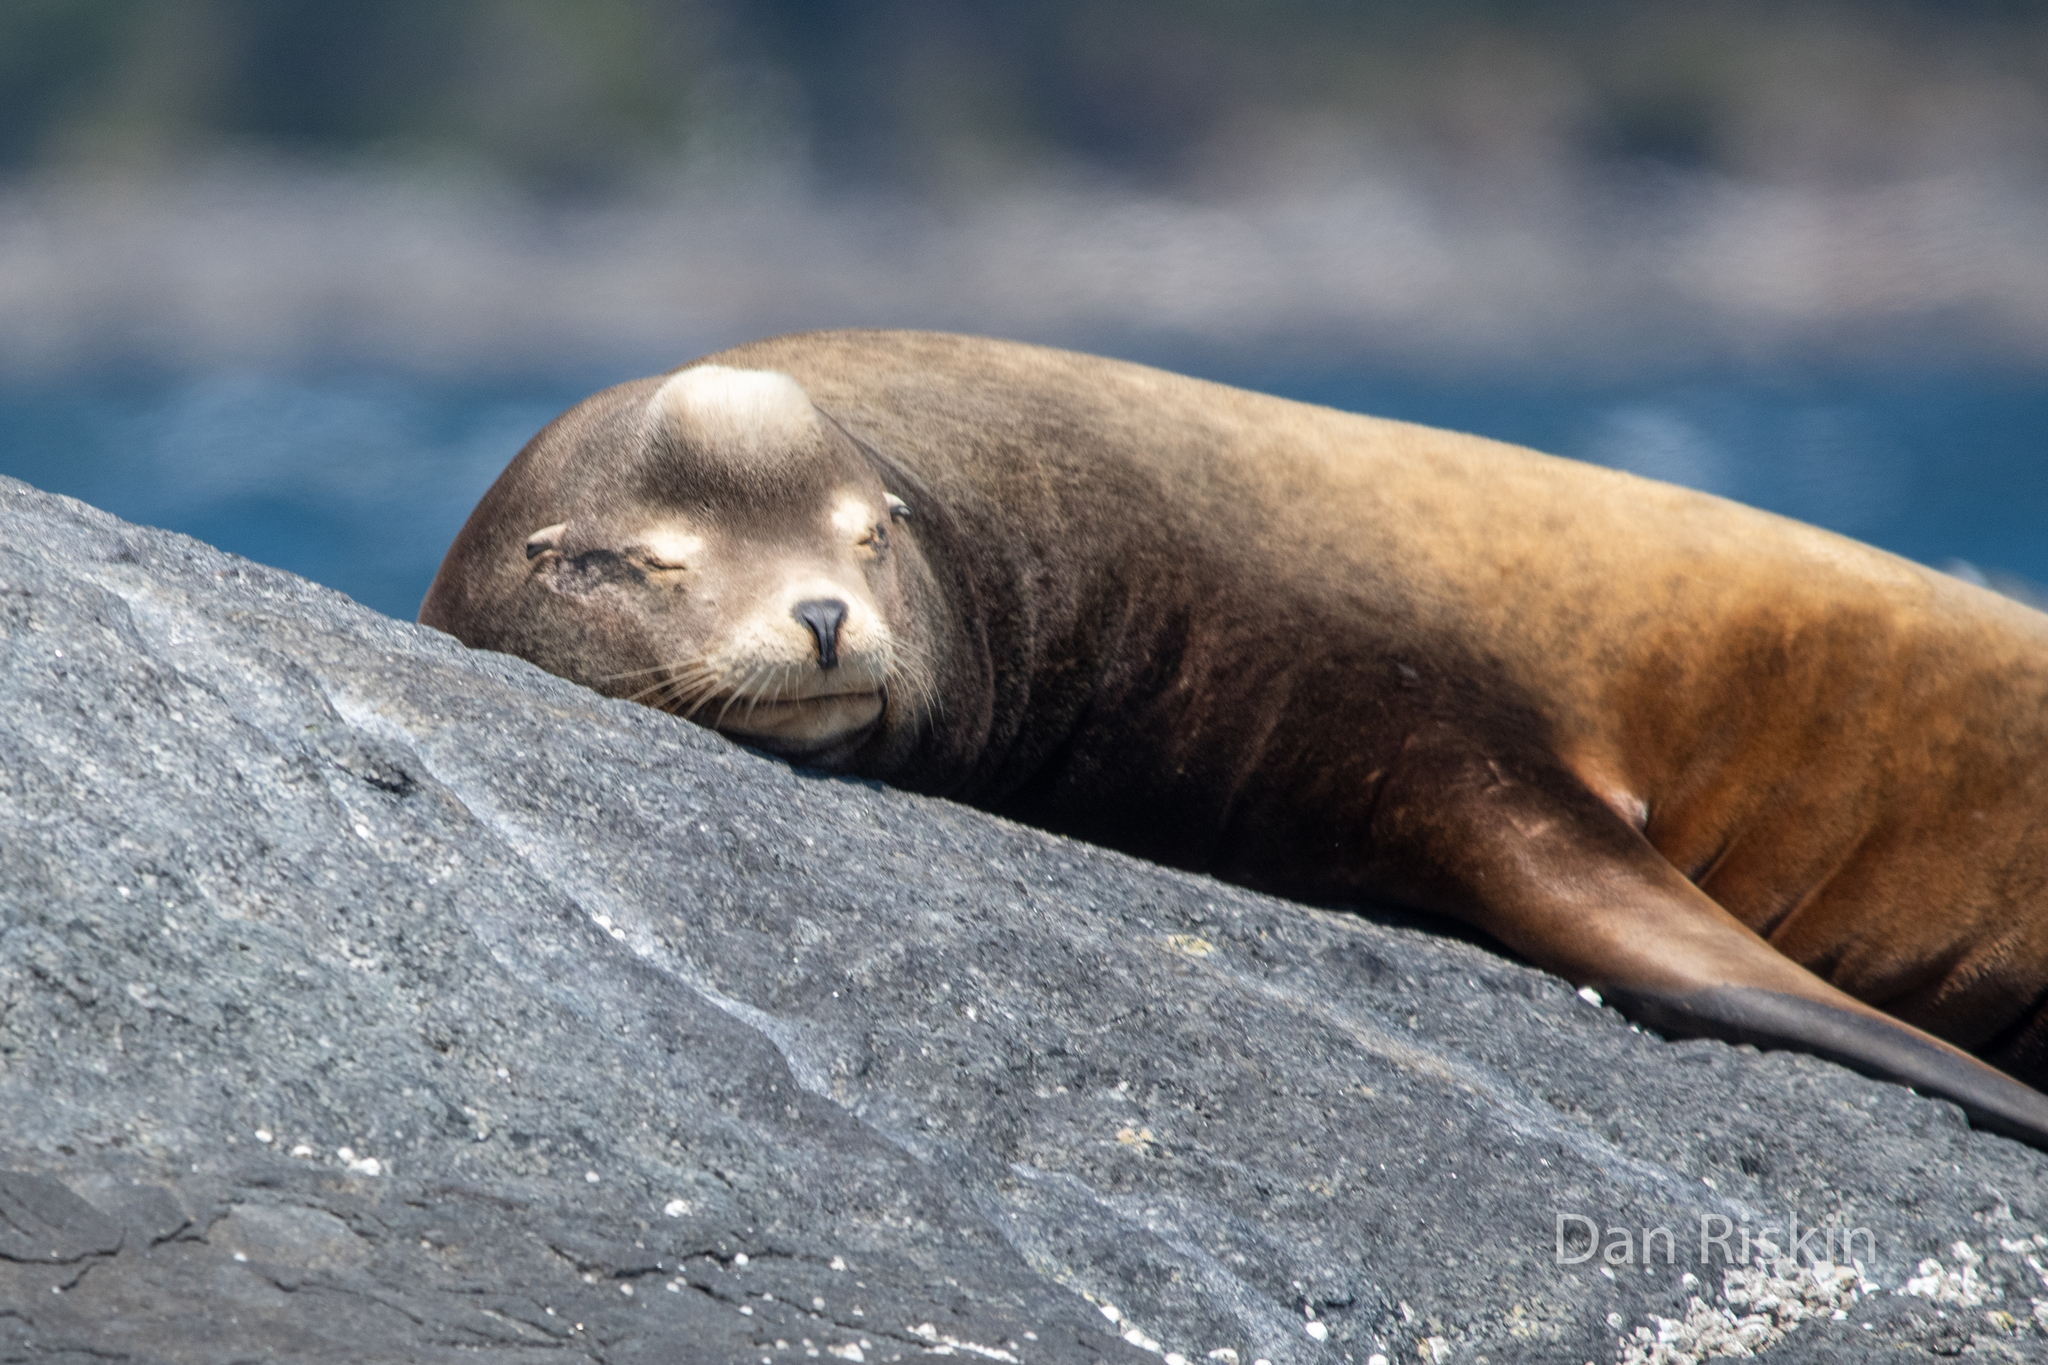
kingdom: Animalia
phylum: Chordata
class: Mammalia
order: Carnivora
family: Otariidae
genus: Zalophus
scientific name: Zalophus californianus
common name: California sea lion
